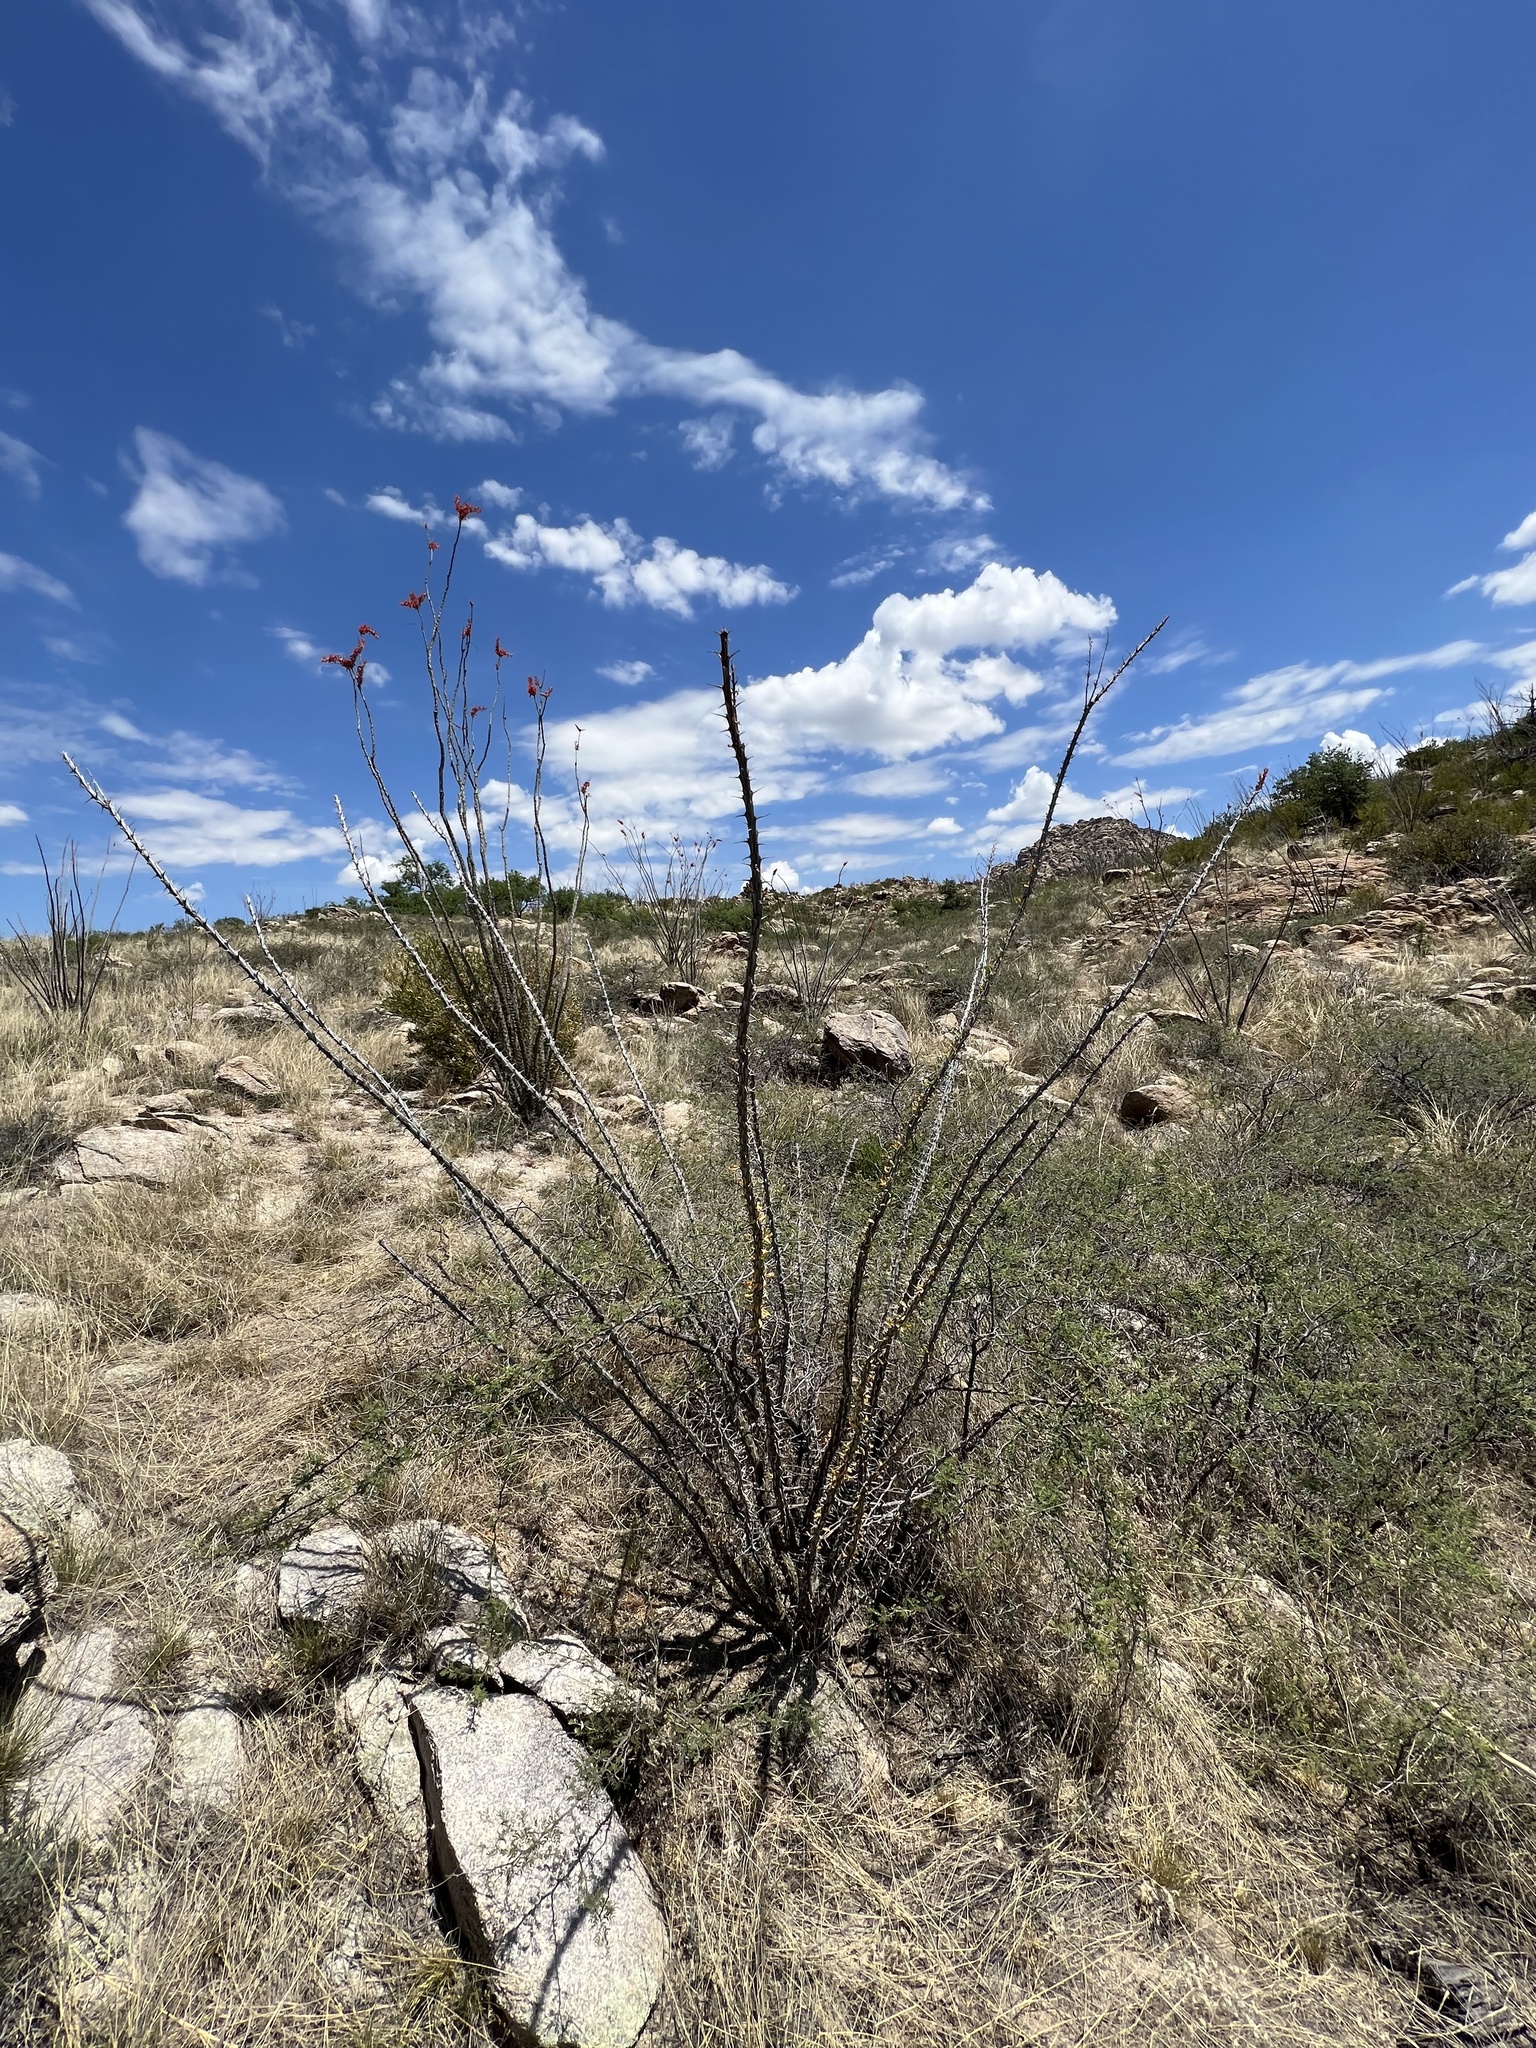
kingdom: Plantae
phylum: Tracheophyta
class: Magnoliopsida
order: Ericales
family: Fouquieriaceae
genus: Fouquieria
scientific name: Fouquieria splendens
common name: Vine-cactus
